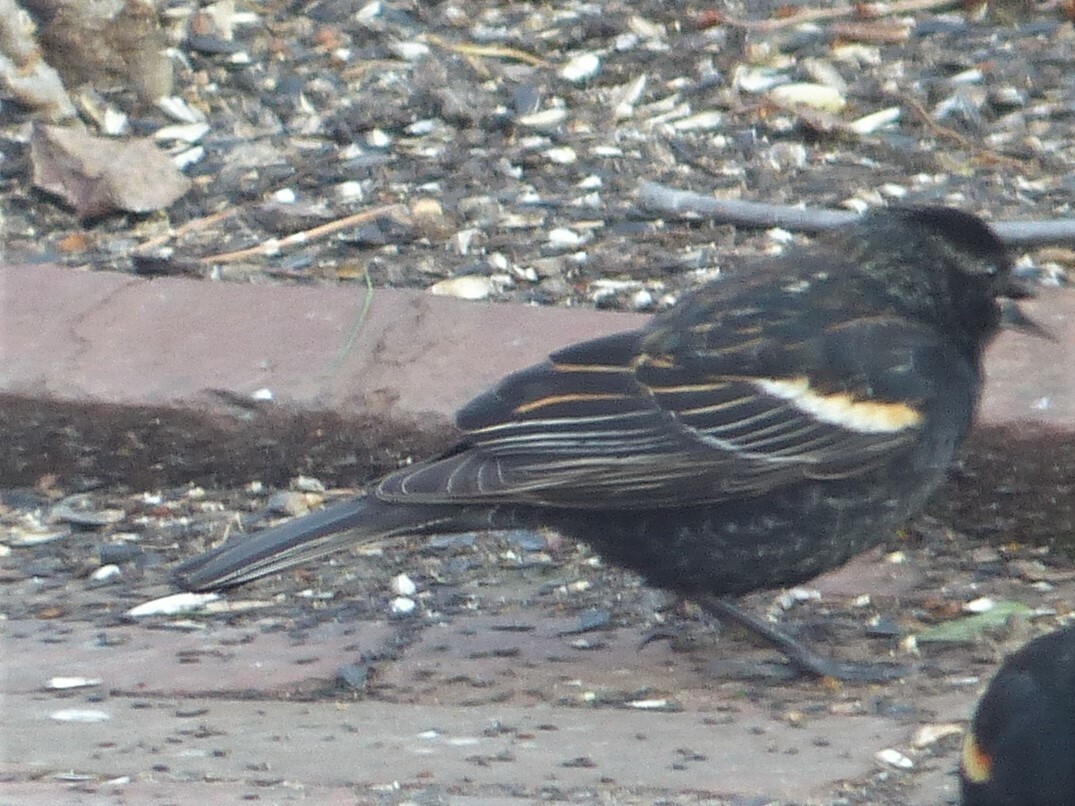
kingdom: Animalia
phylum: Chordata
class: Aves
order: Passeriformes
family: Icteridae
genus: Agelaius
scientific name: Agelaius phoeniceus
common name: Red-winged blackbird
